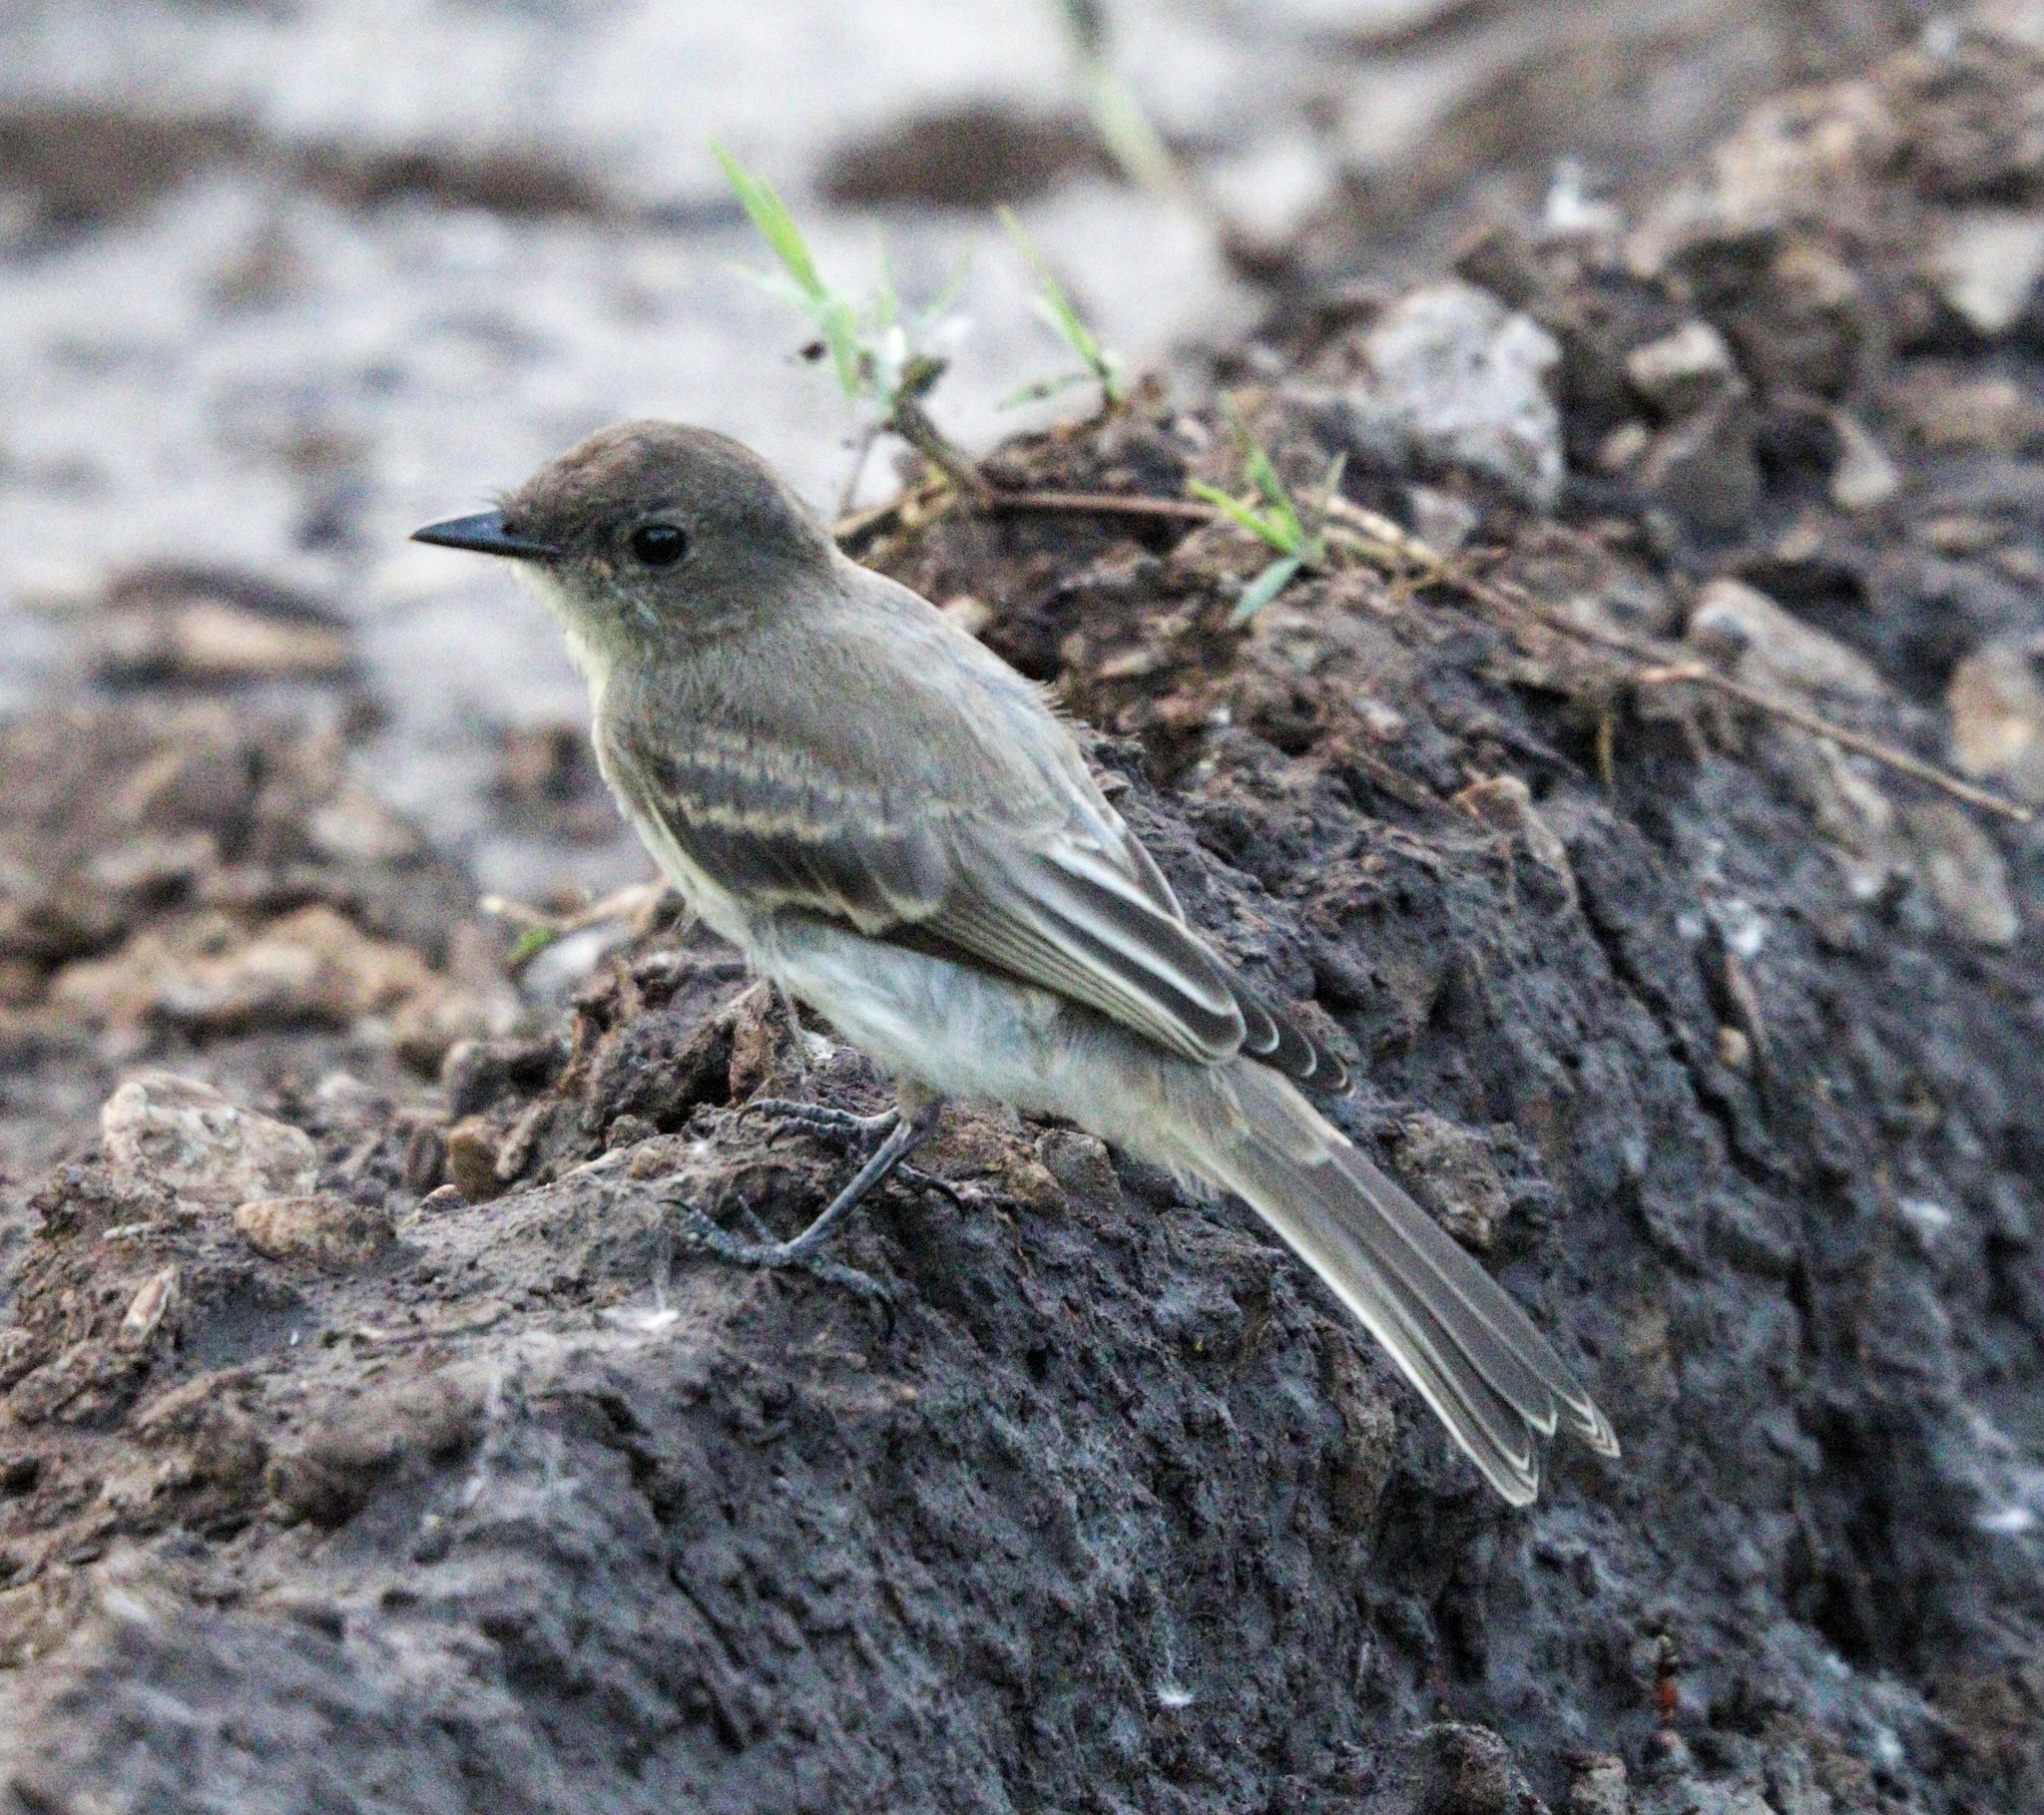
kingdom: Animalia
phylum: Chordata
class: Aves
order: Passeriformes
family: Tyrannidae
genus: Sayornis
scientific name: Sayornis phoebe
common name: Eastern phoebe
